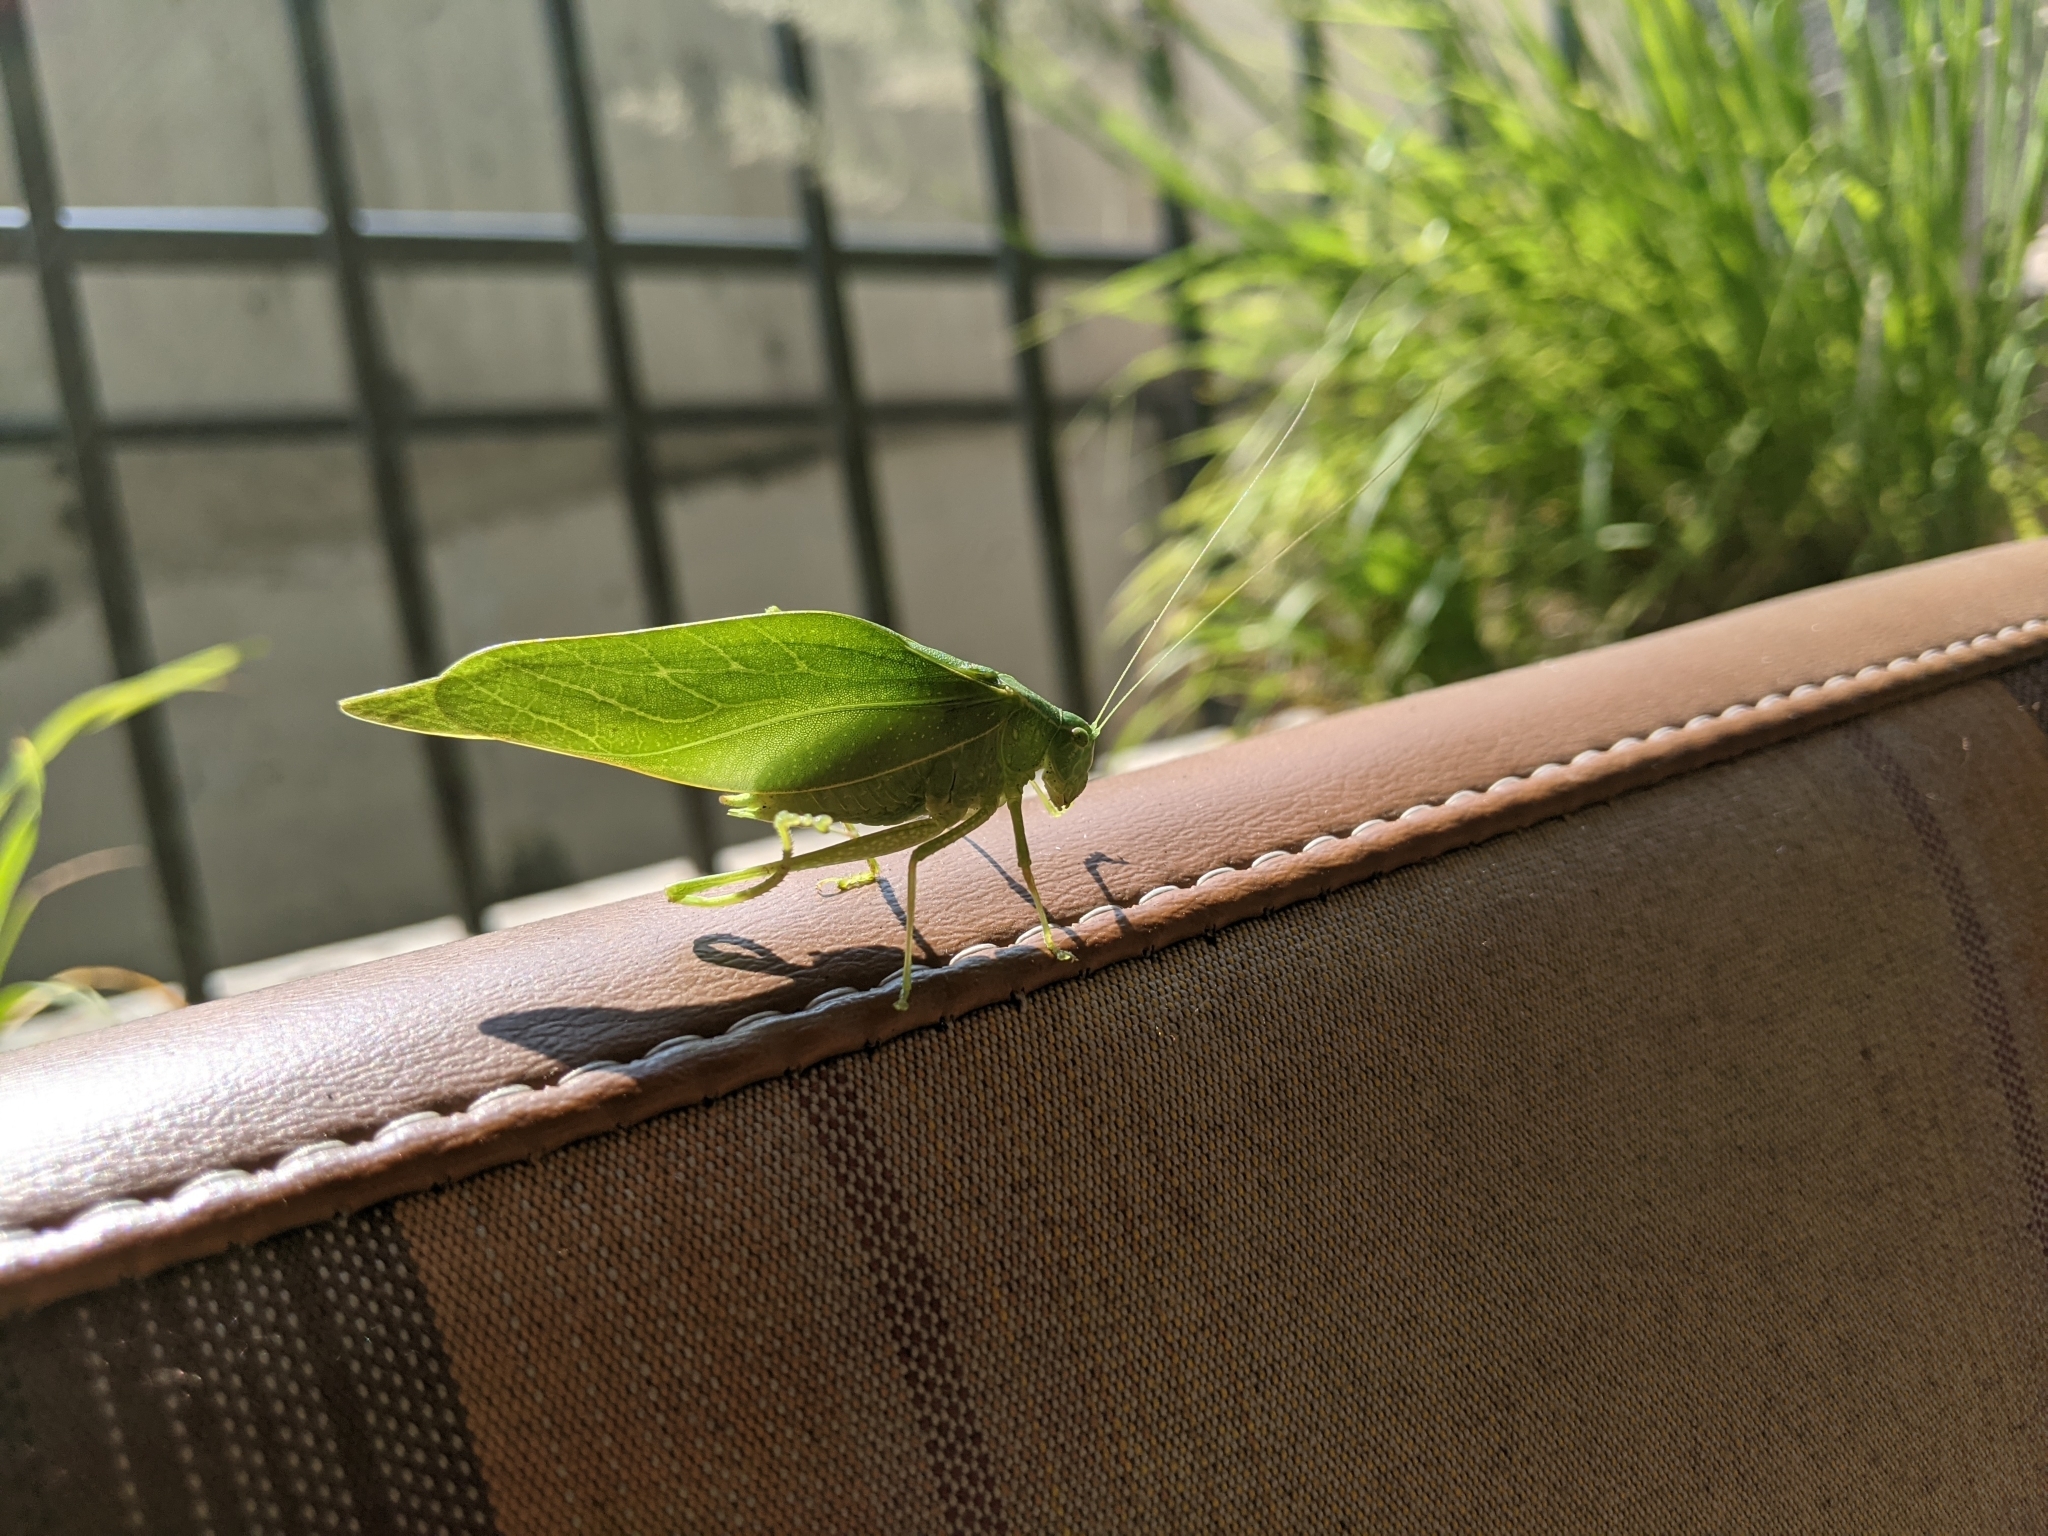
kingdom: Animalia
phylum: Arthropoda
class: Insecta
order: Orthoptera
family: Tettigoniidae
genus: Microcentrum
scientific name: Microcentrum rhombifolium
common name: Broad-winged katydid
